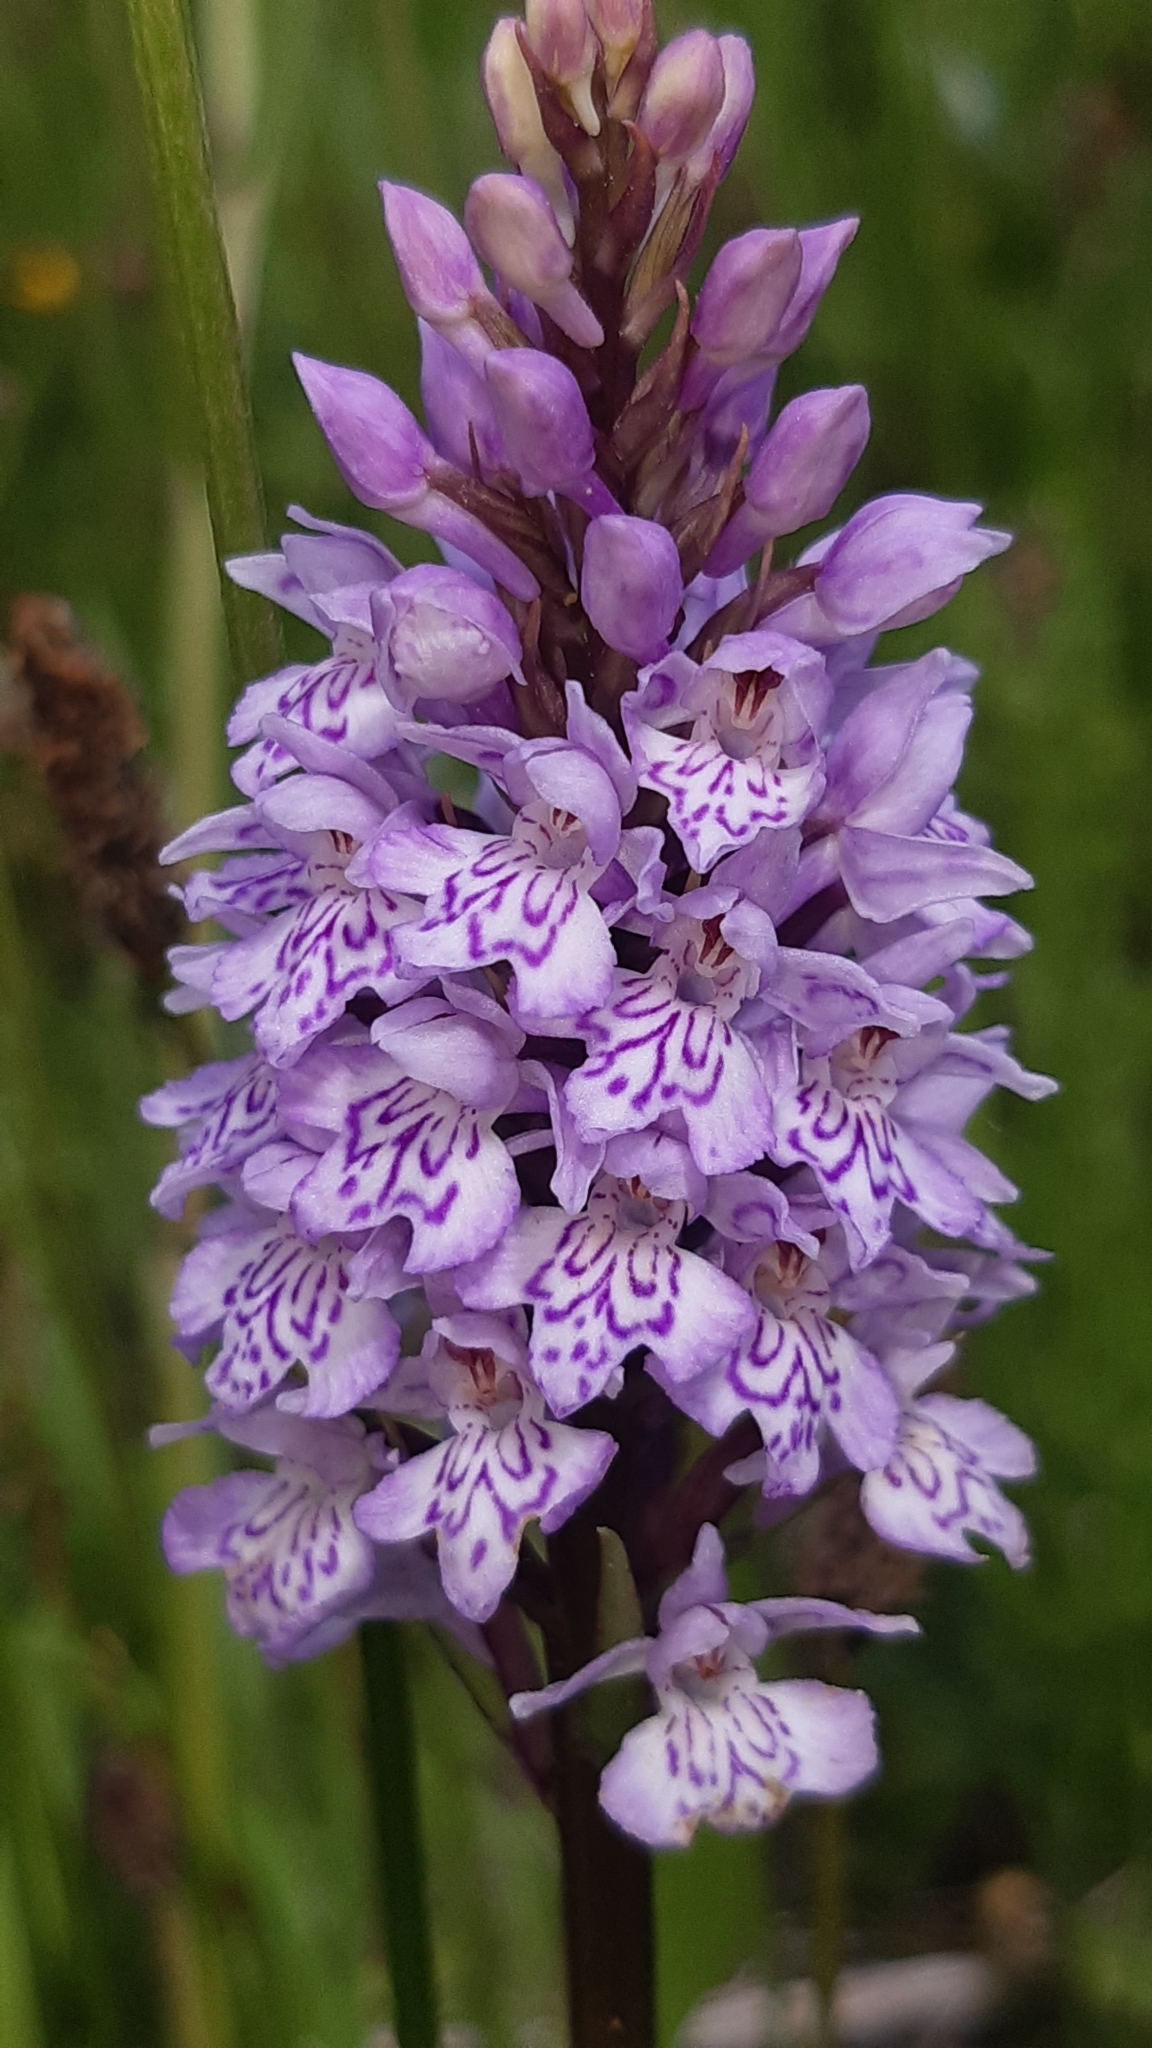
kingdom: Plantae
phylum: Tracheophyta
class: Liliopsida
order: Asparagales
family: Orchidaceae
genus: Dactylorhiza
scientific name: Dactylorhiza maculata
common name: Heath spotted-orchid
